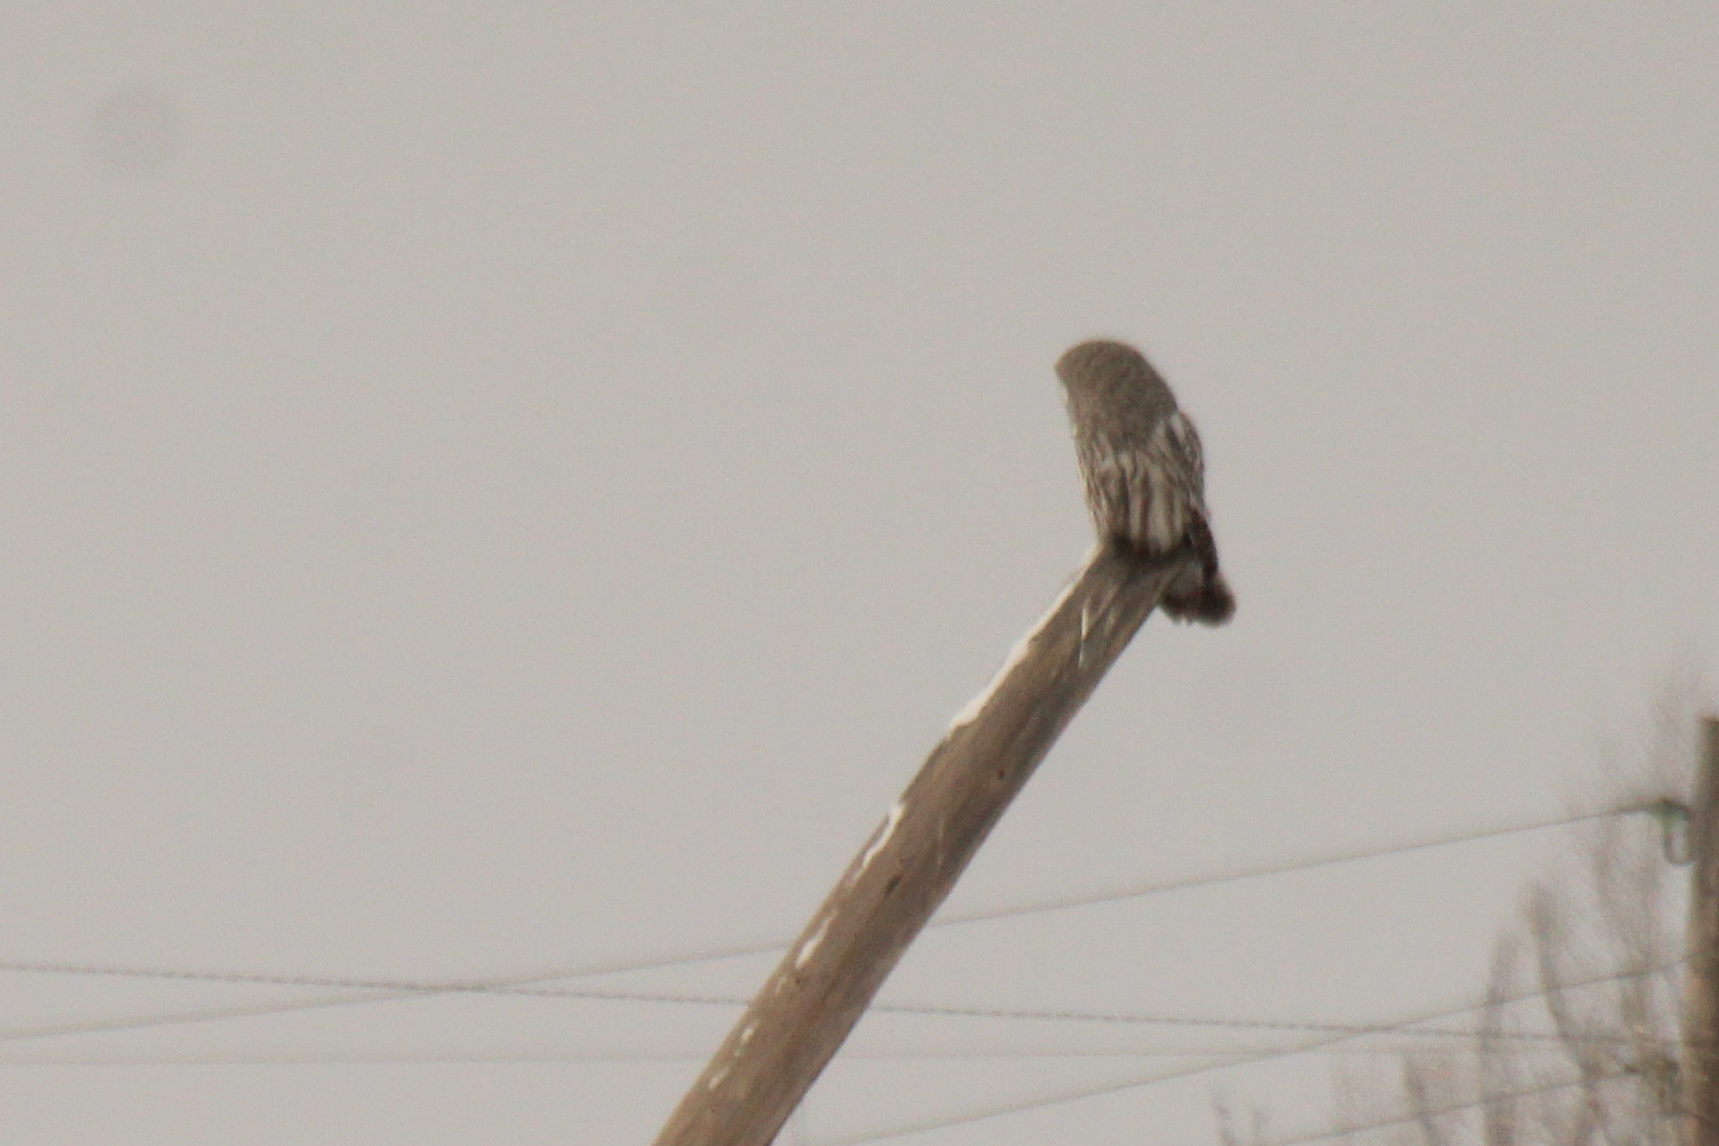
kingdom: Animalia
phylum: Chordata
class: Aves
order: Strigiformes
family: Strigidae
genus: Strix
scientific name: Strix nebulosa
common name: Great grey owl
